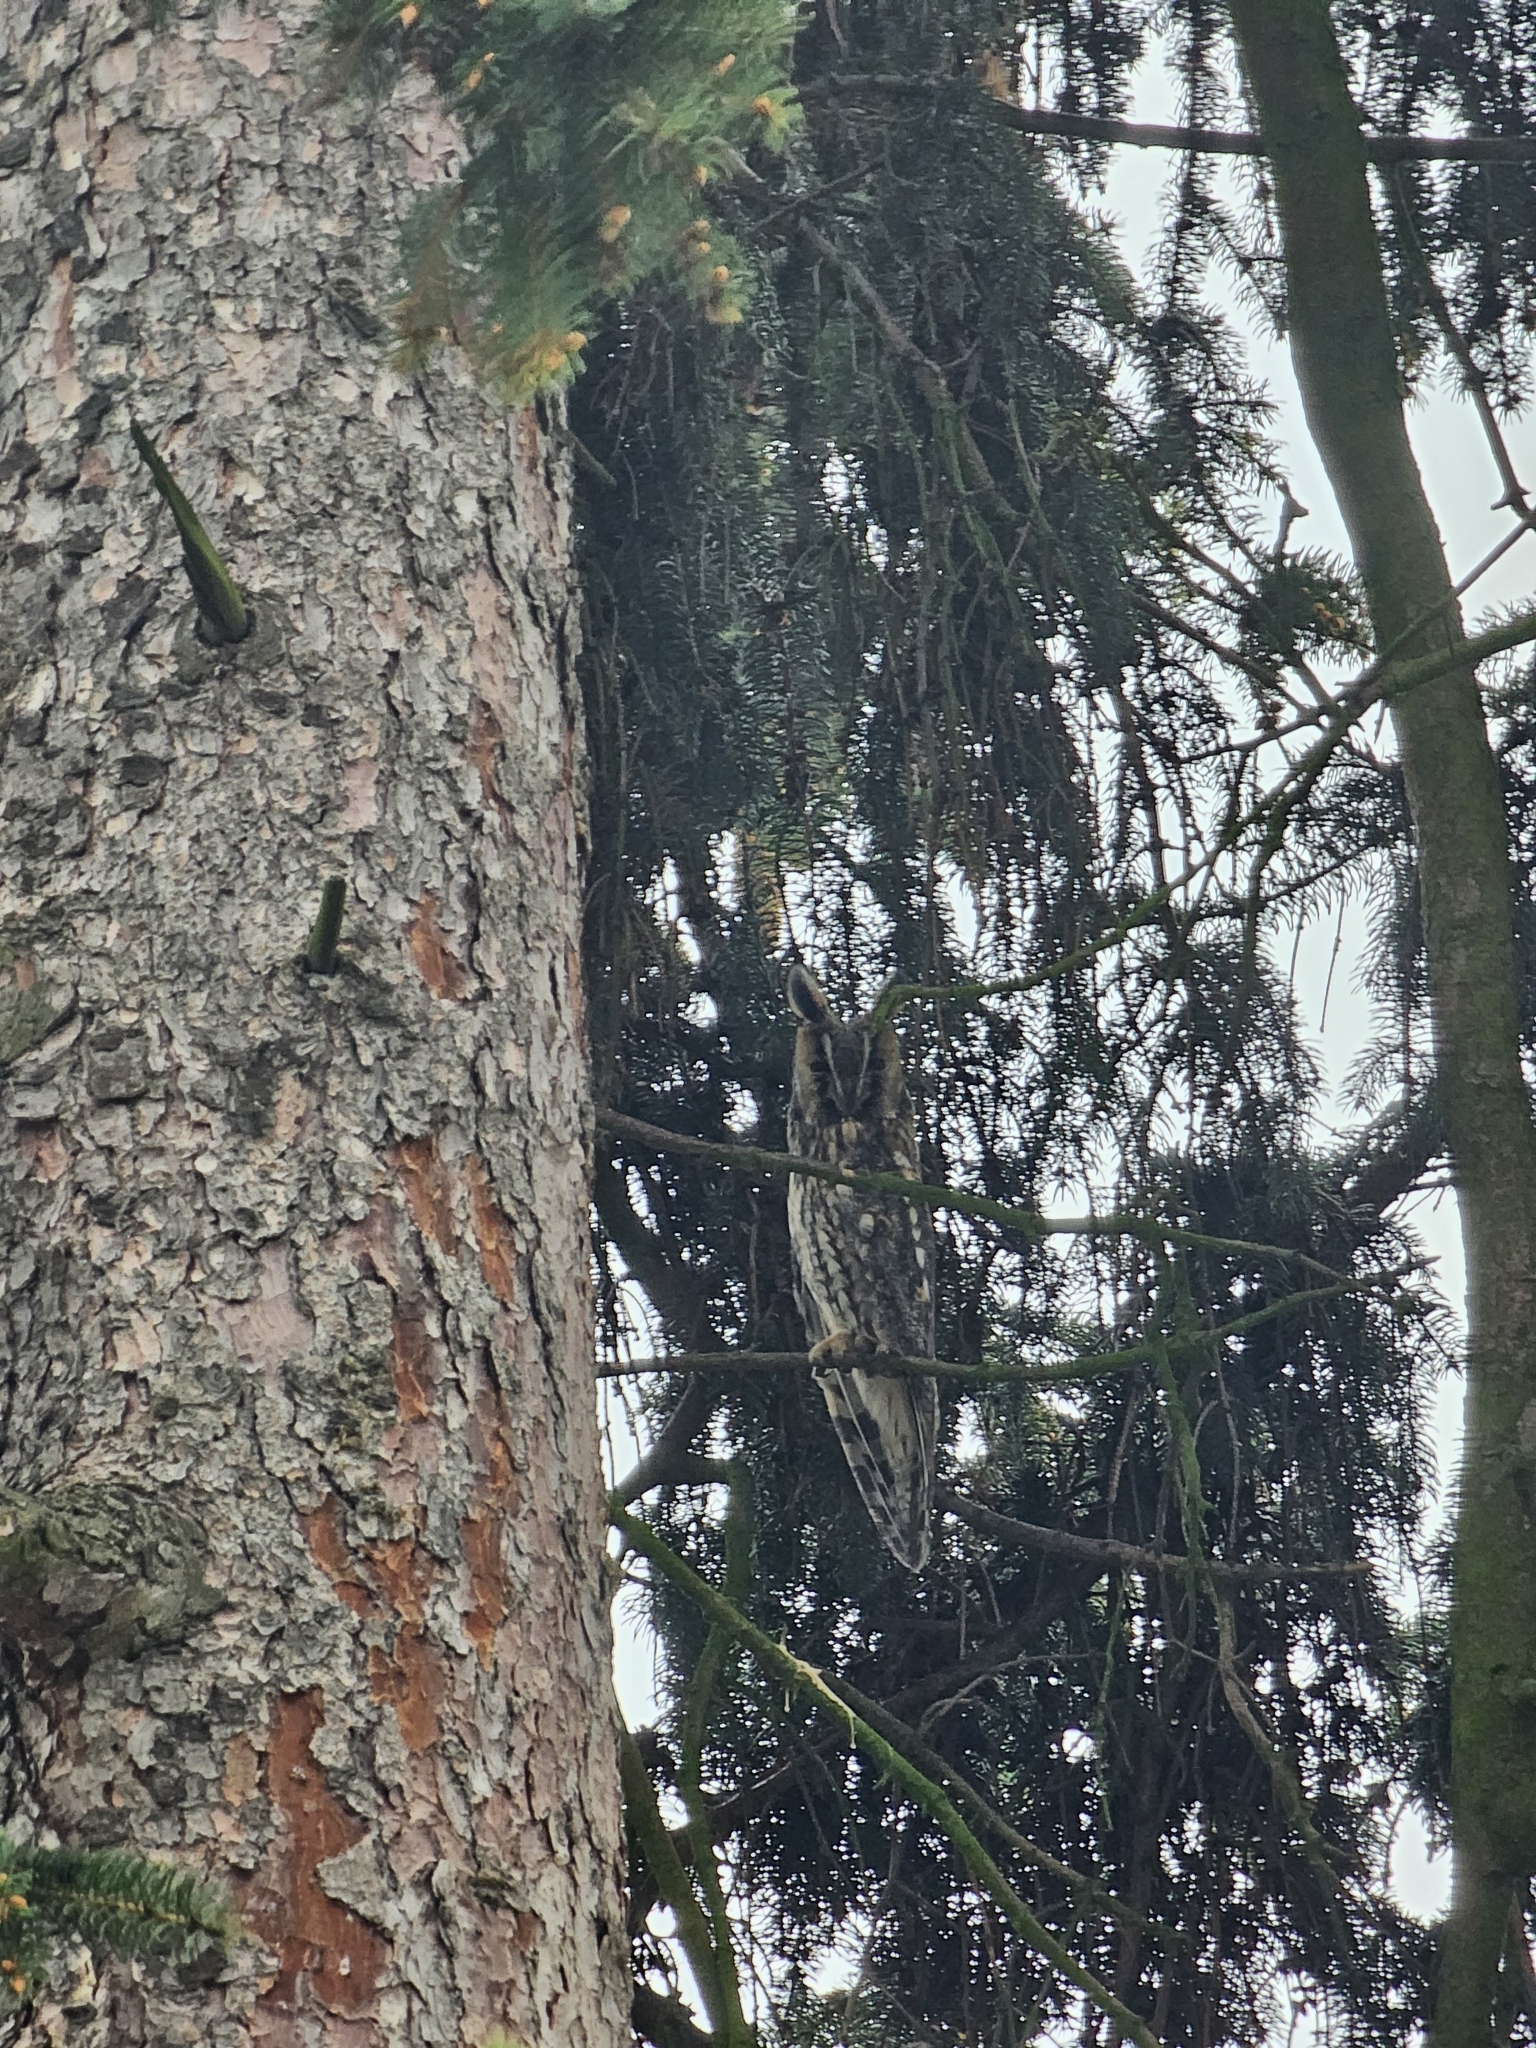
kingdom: Animalia
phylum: Chordata
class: Aves
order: Strigiformes
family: Strigidae
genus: Asio
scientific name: Asio otus
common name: Long-eared owl
